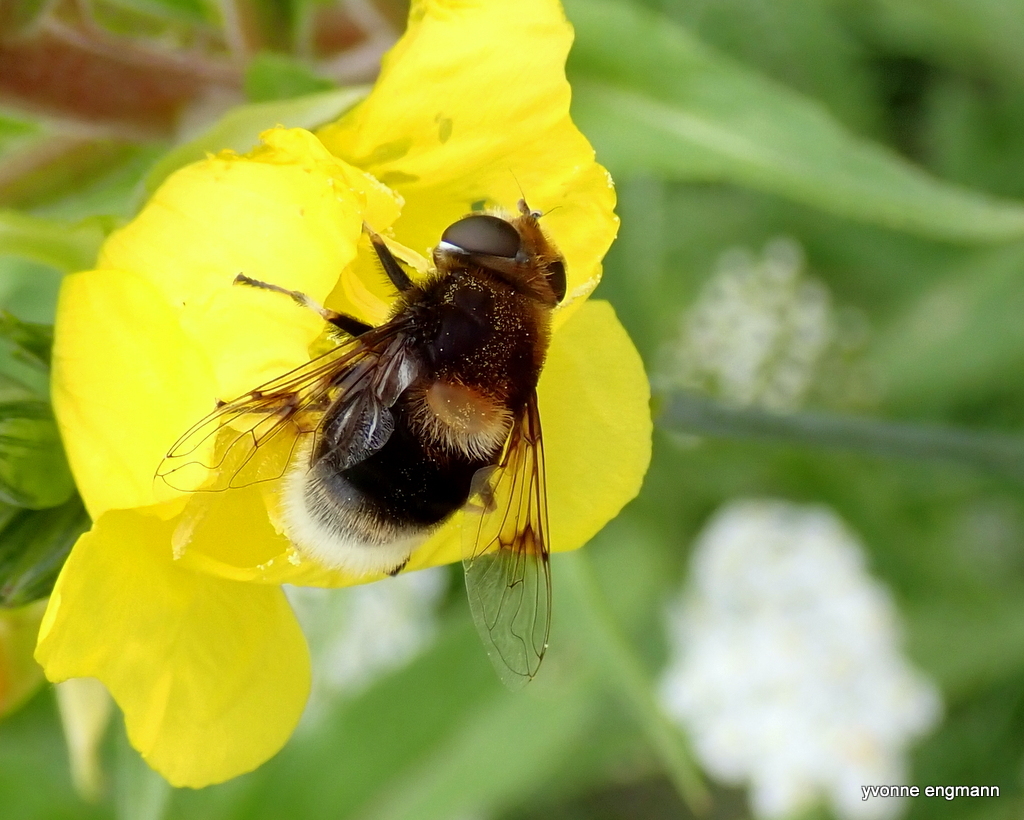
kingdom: Animalia
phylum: Arthropoda
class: Insecta
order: Diptera
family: Syrphidae
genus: Eristalis
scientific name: Eristalis intricaria
